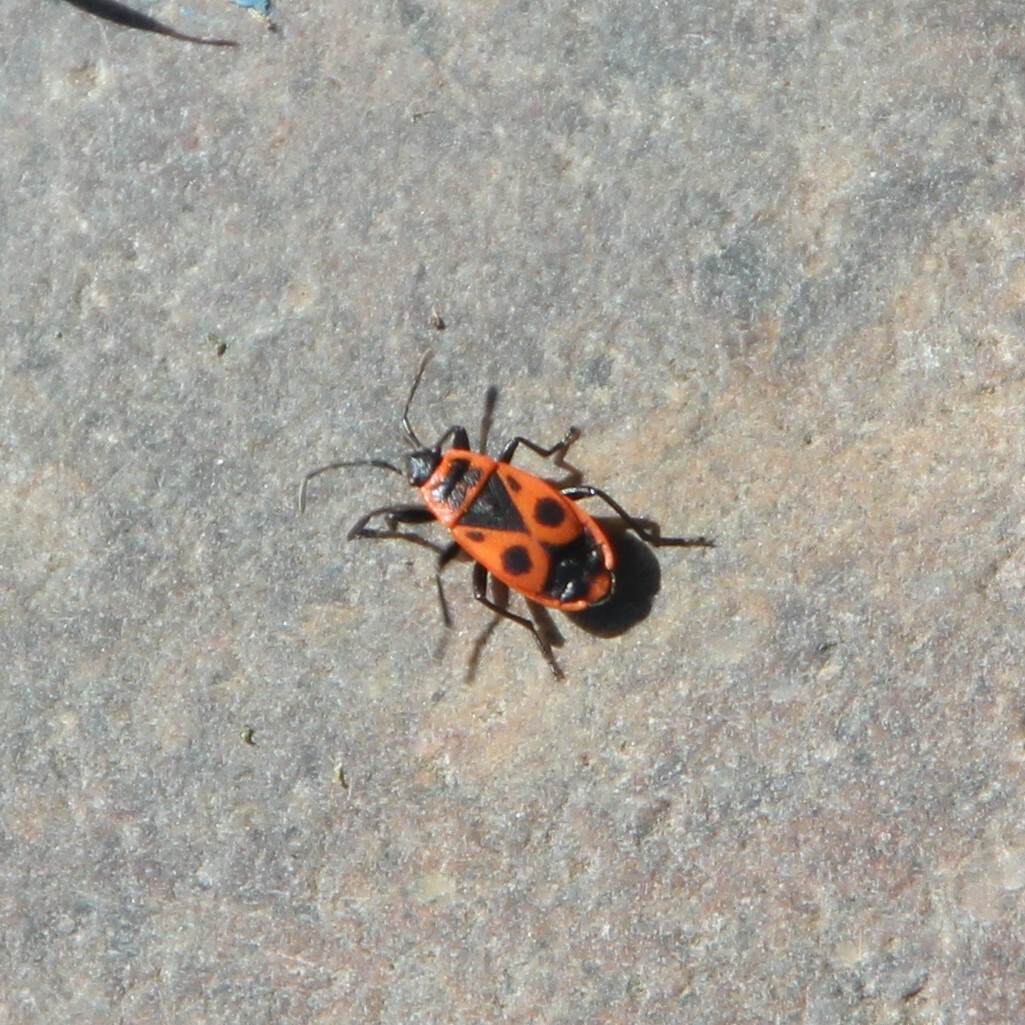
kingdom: Animalia
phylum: Arthropoda
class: Insecta
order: Hemiptera
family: Pyrrhocoridae
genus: Pyrrhocoris
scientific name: Pyrrhocoris apterus
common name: Firebug
